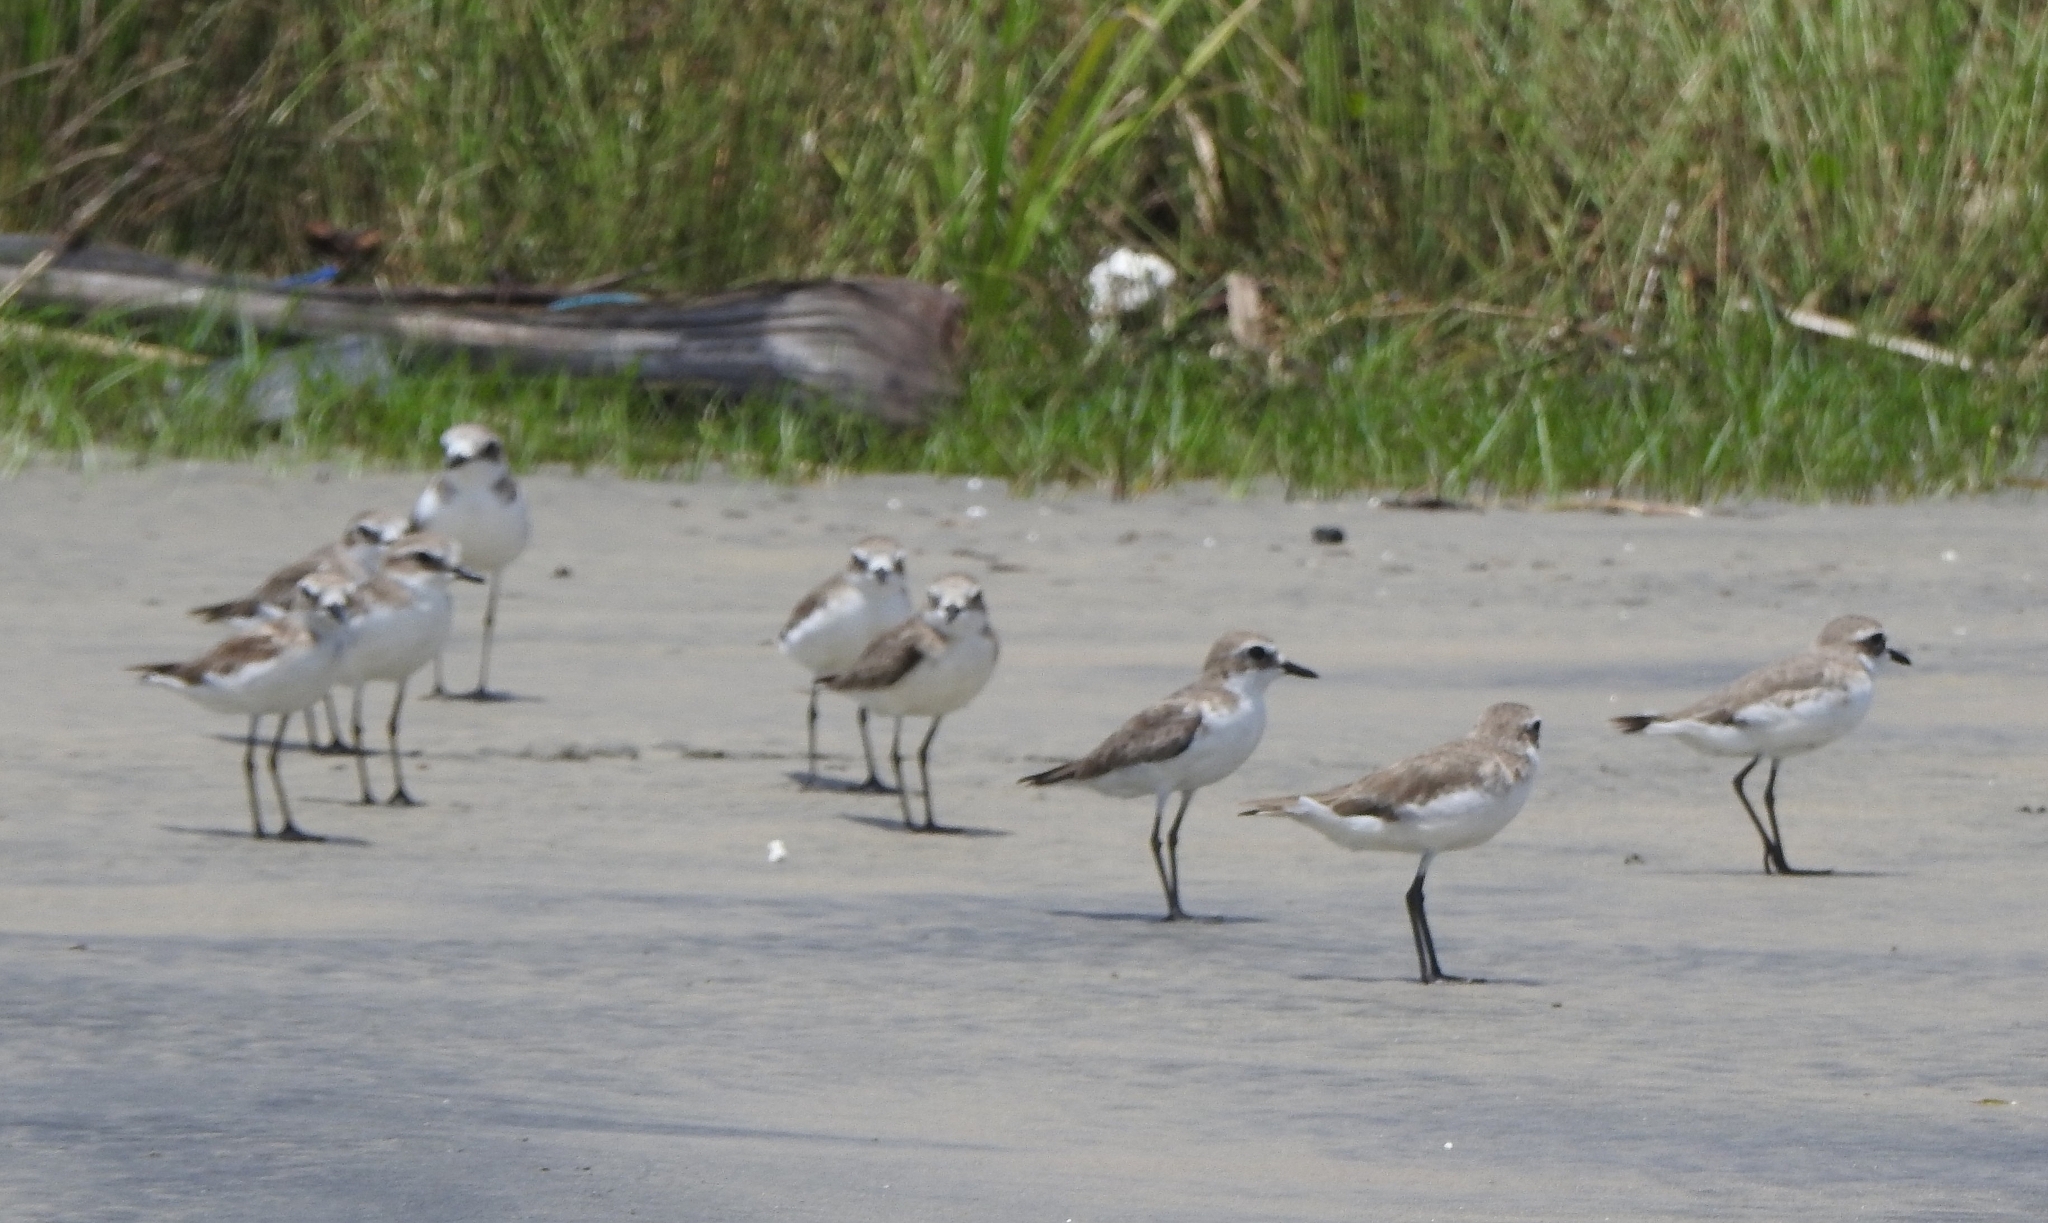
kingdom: Animalia
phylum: Chordata
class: Aves
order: Charadriiformes
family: Charadriidae
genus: Anarhynchus
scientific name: Anarhynchus
